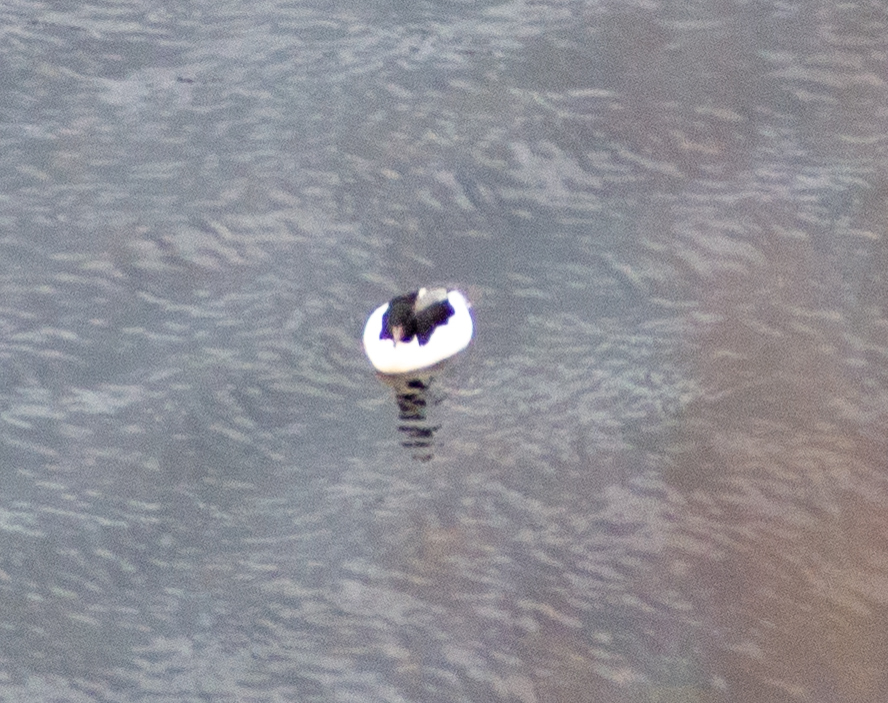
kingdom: Animalia
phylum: Chordata
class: Aves
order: Anseriformes
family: Anatidae
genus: Mergus
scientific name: Mergus merganser
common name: Common merganser
